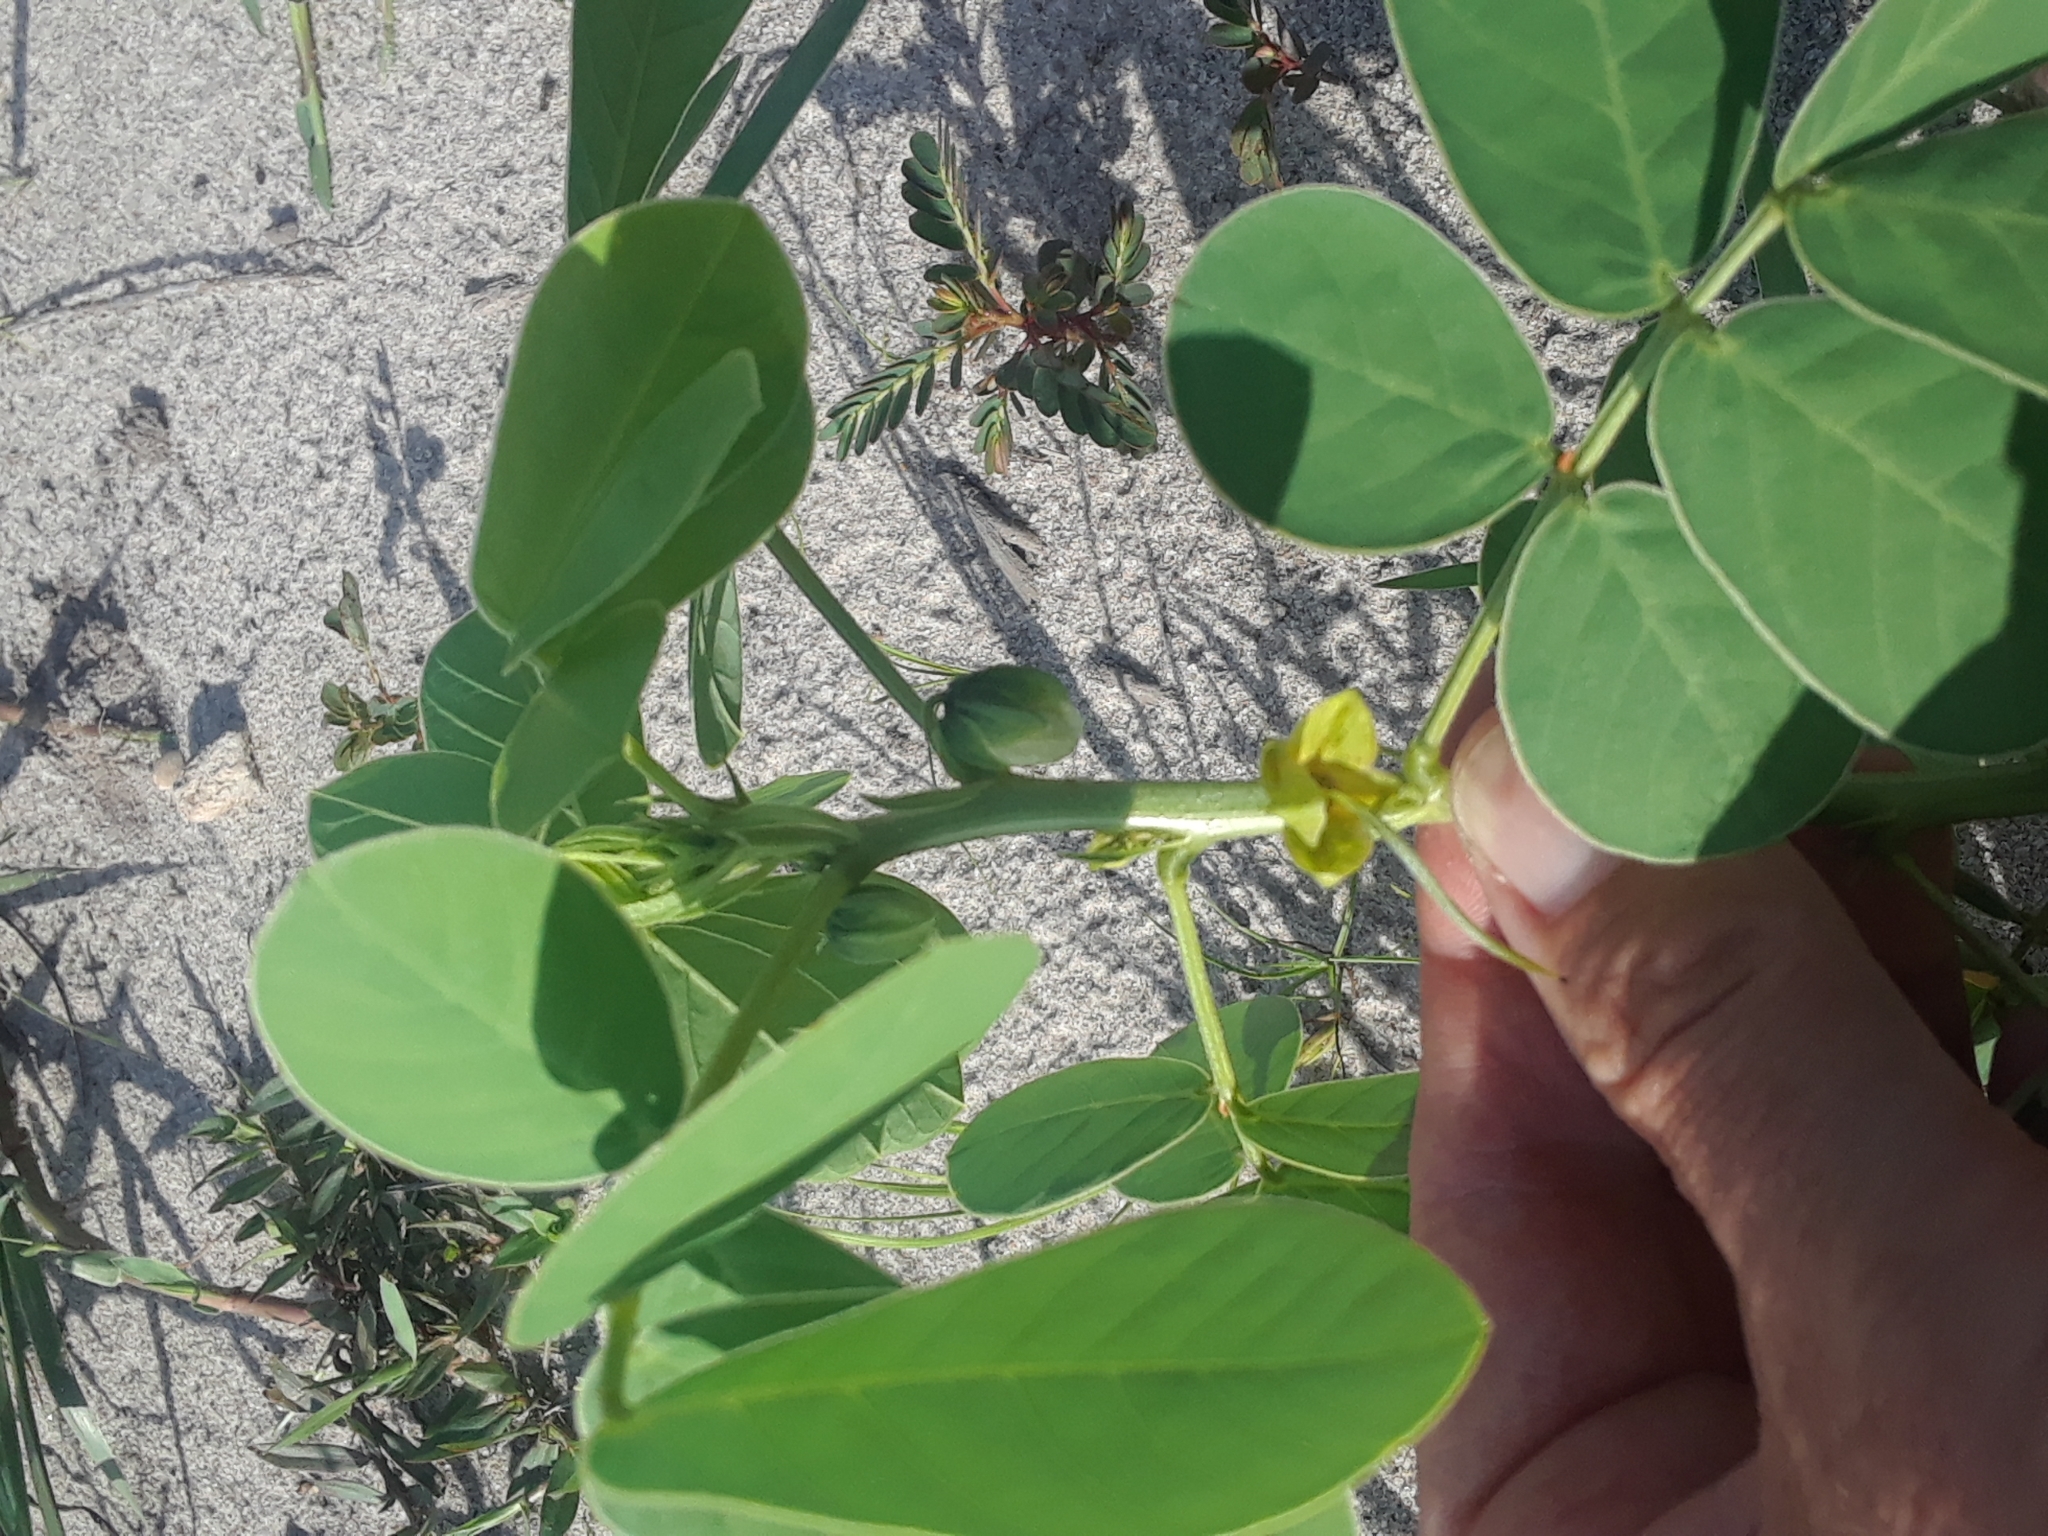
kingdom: Plantae
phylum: Tracheophyta
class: Magnoliopsida
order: Fabales
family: Fabaceae
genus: Senna
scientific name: Senna obtusifolia
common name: Java-bean
